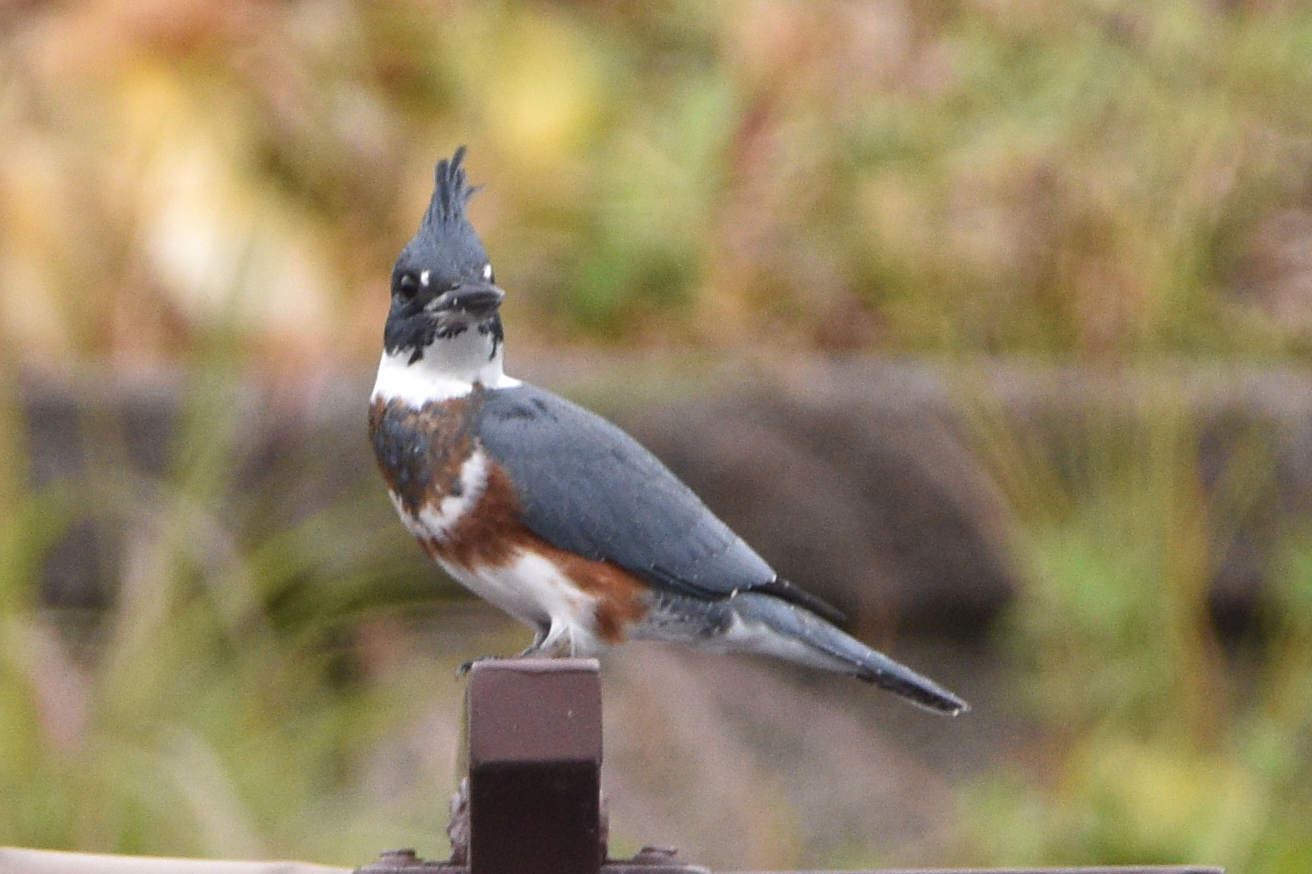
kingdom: Animalia
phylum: Chordata
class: Aves
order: Coraciiformes
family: Alcedinidae
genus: Megaceryle
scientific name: Megaceryle alcyon
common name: Belted kingfisher
